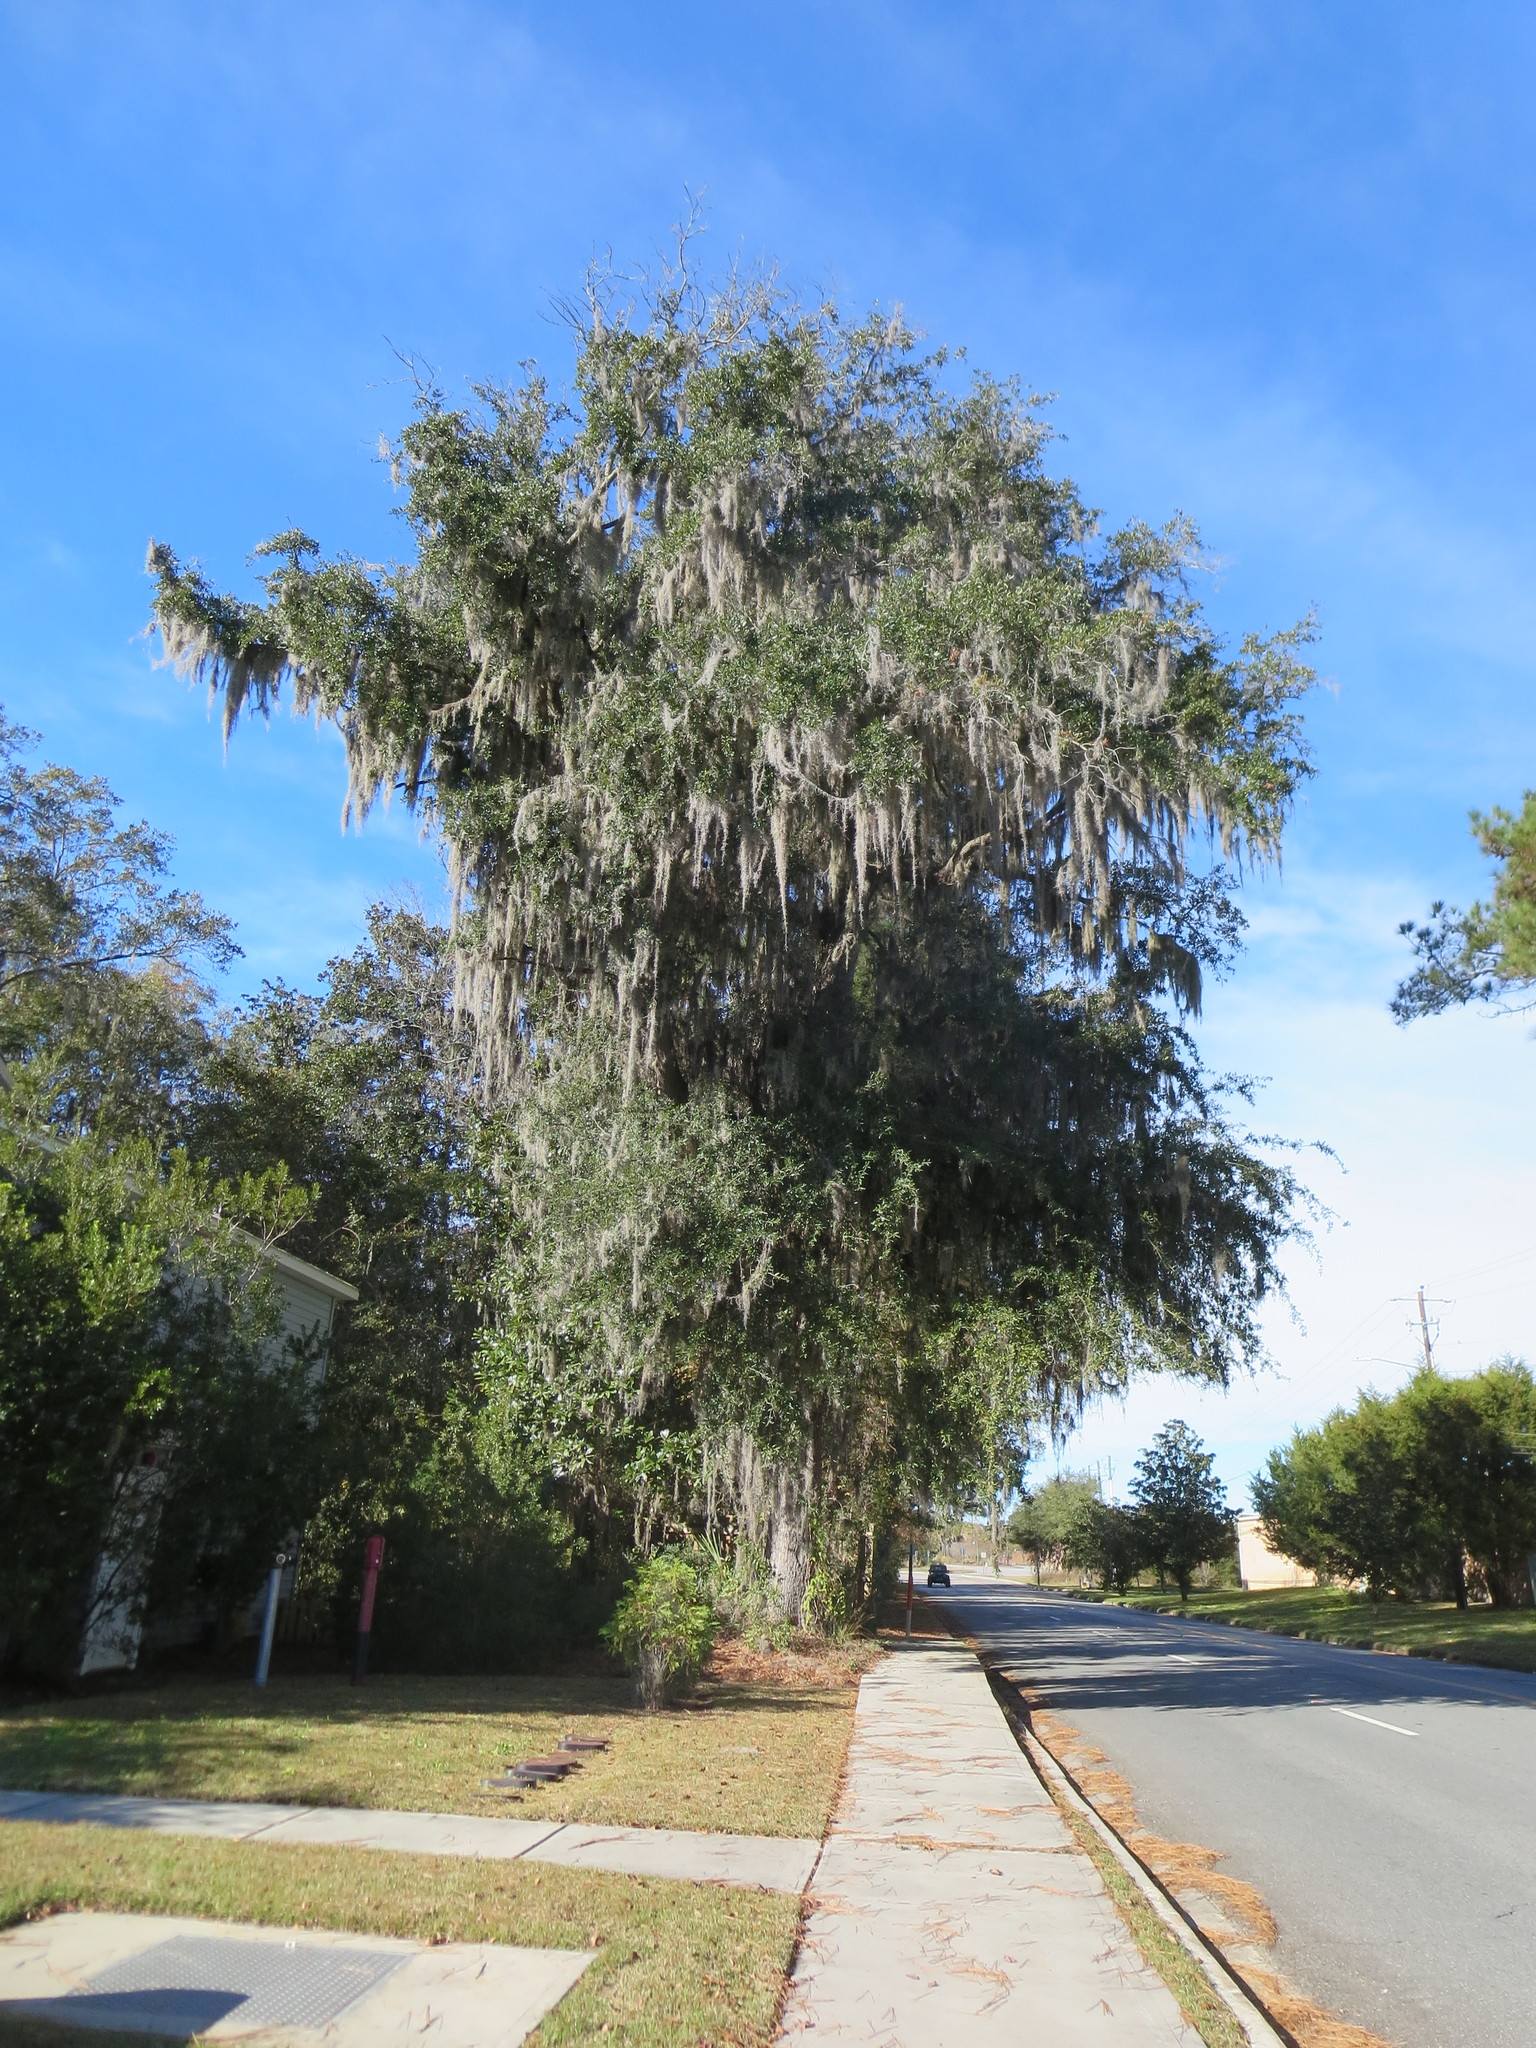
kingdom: Plantae
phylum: Tracheophyta
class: Magnoliopsida
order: Fagales
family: Fagaceae
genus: Quercus
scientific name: Quercus virginiana
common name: Southern live oak
